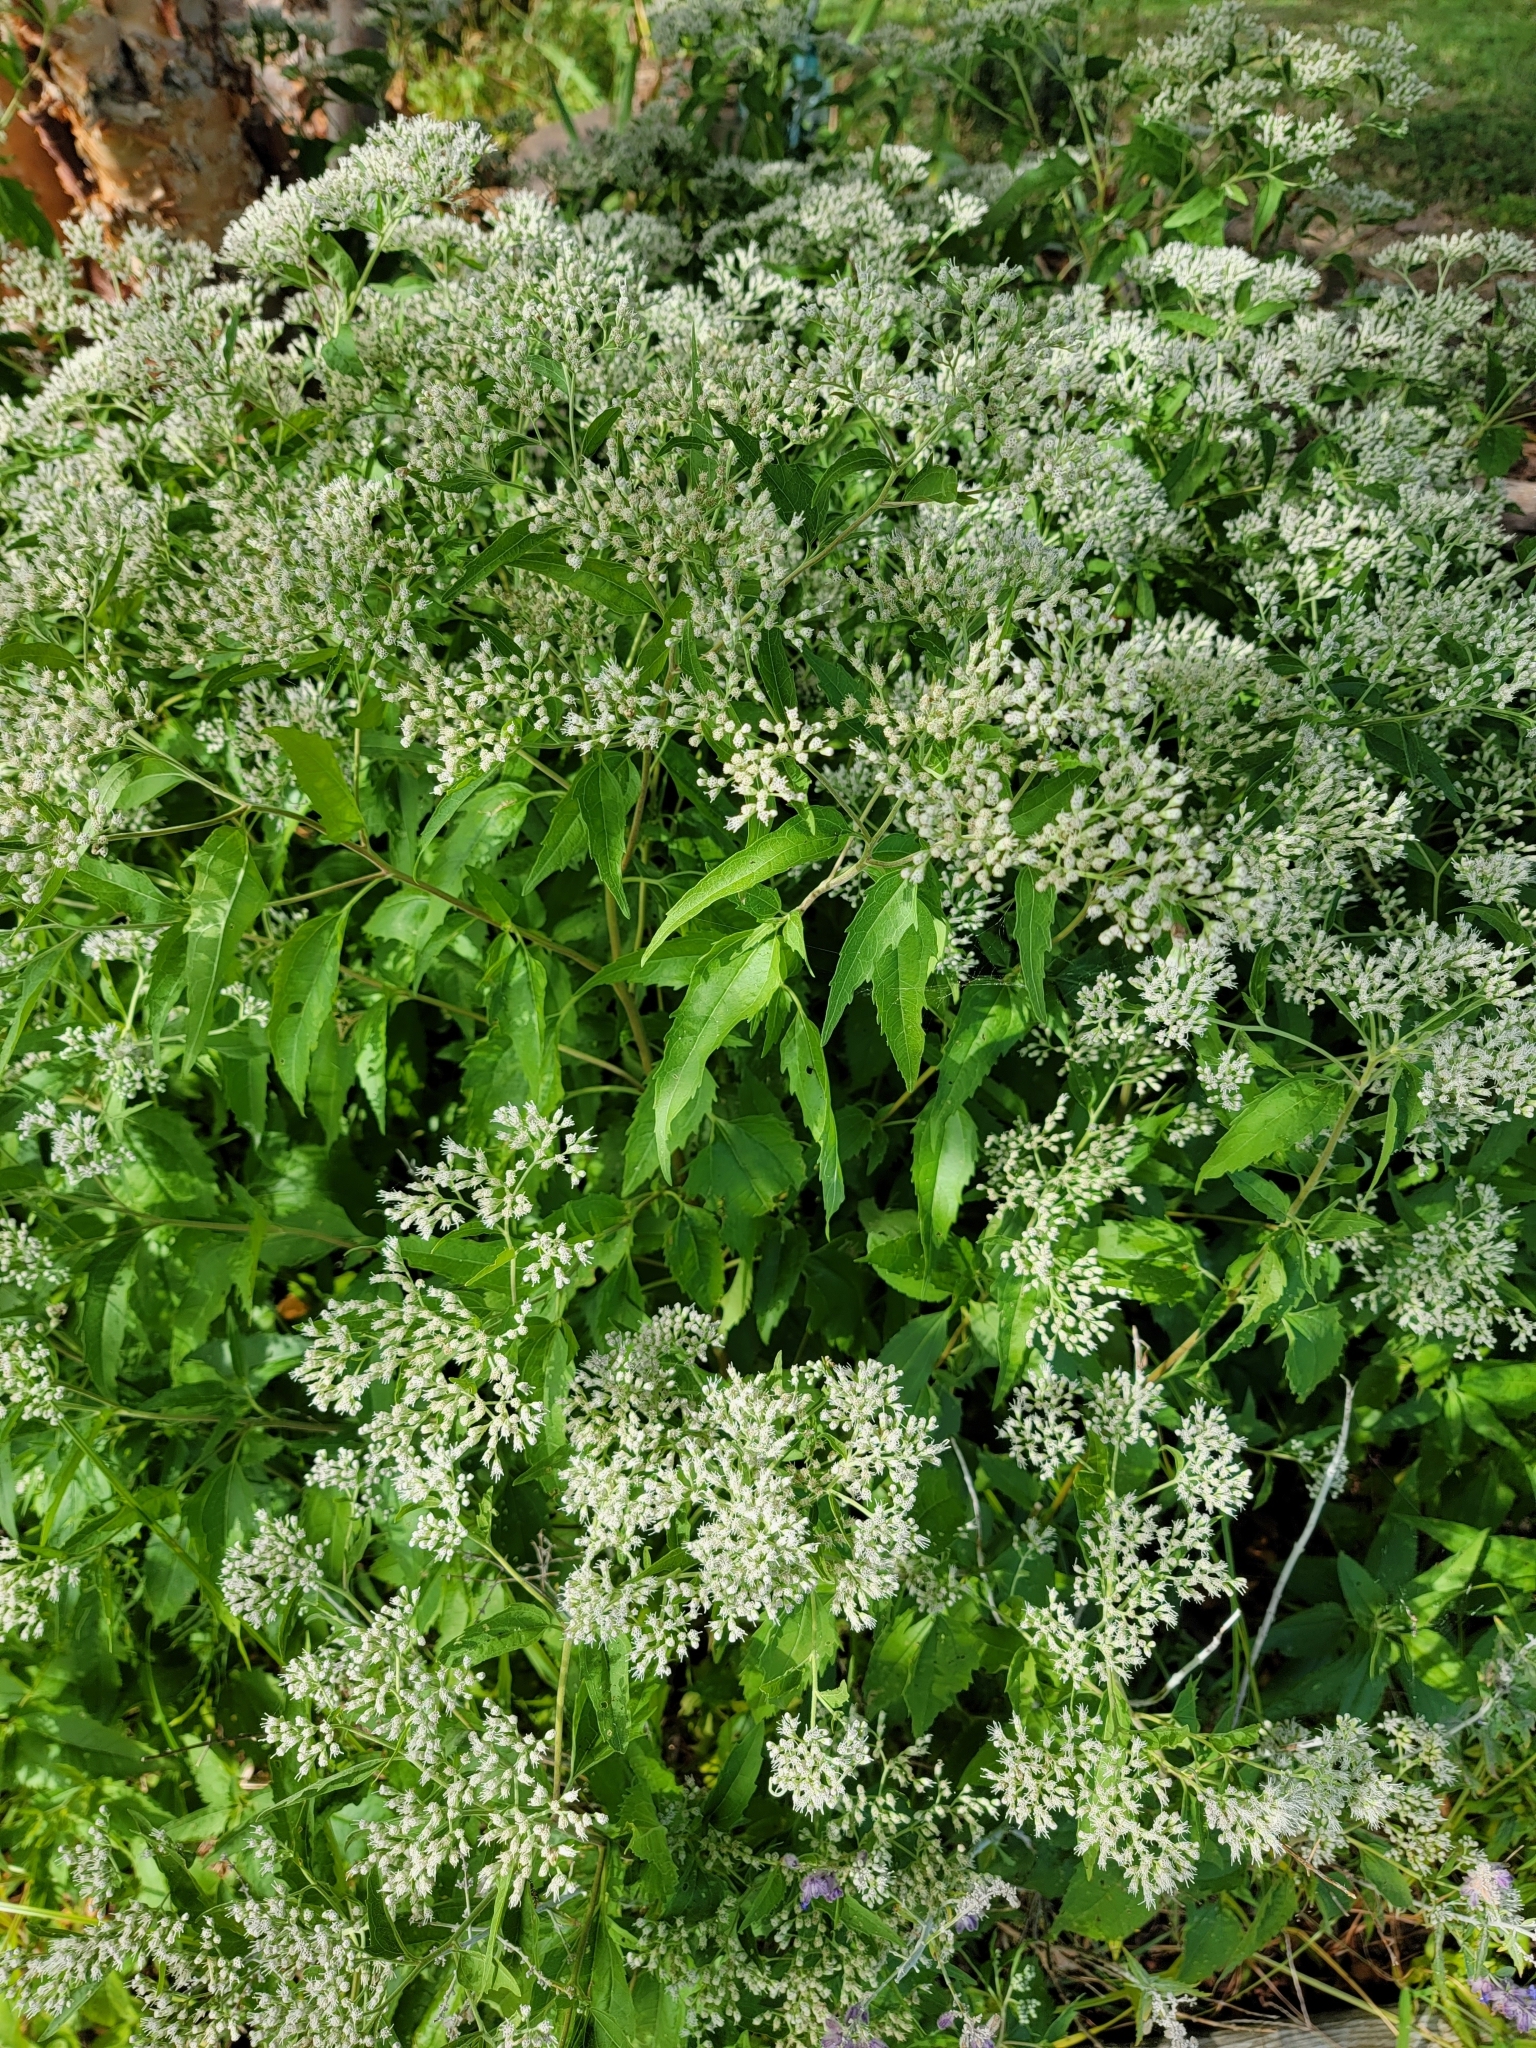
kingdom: Plantae
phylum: Tracheophyta
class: Magnoliopsida
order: Asterales
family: Asteraceae
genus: Eupatorium
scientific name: Eupatorium serotinum
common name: Late boneset
